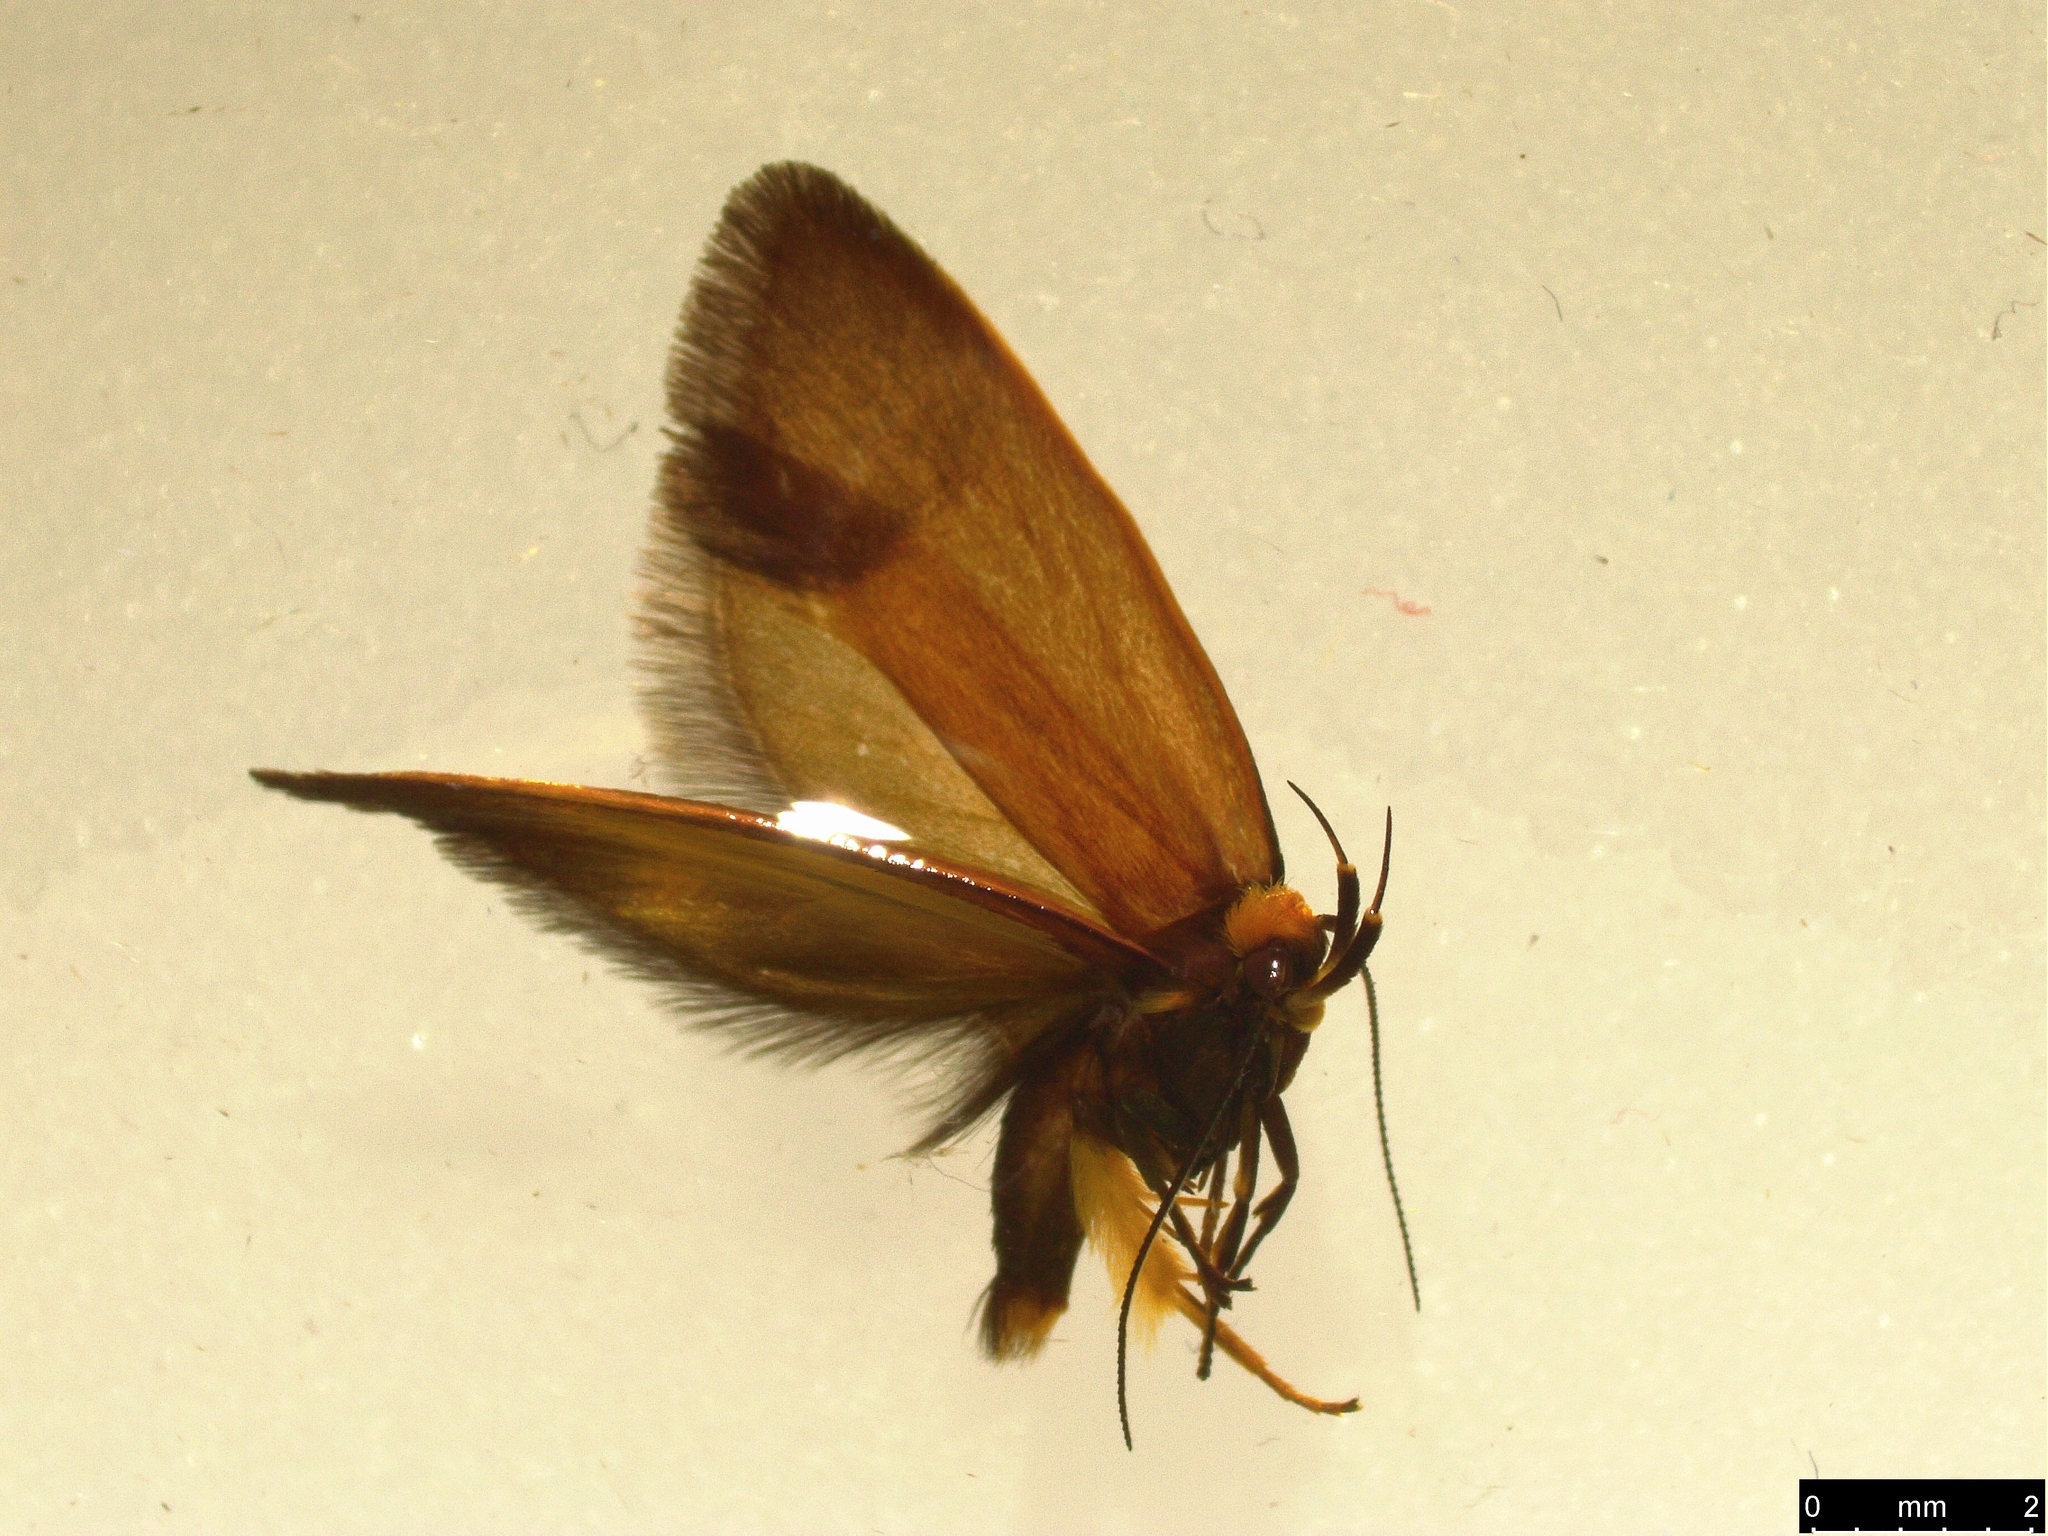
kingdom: Animalia
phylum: Arthropoda
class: Insecta
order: Lepidoptera
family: Oecophoridae
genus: Delexocha
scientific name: Delexocha ochrocausta
